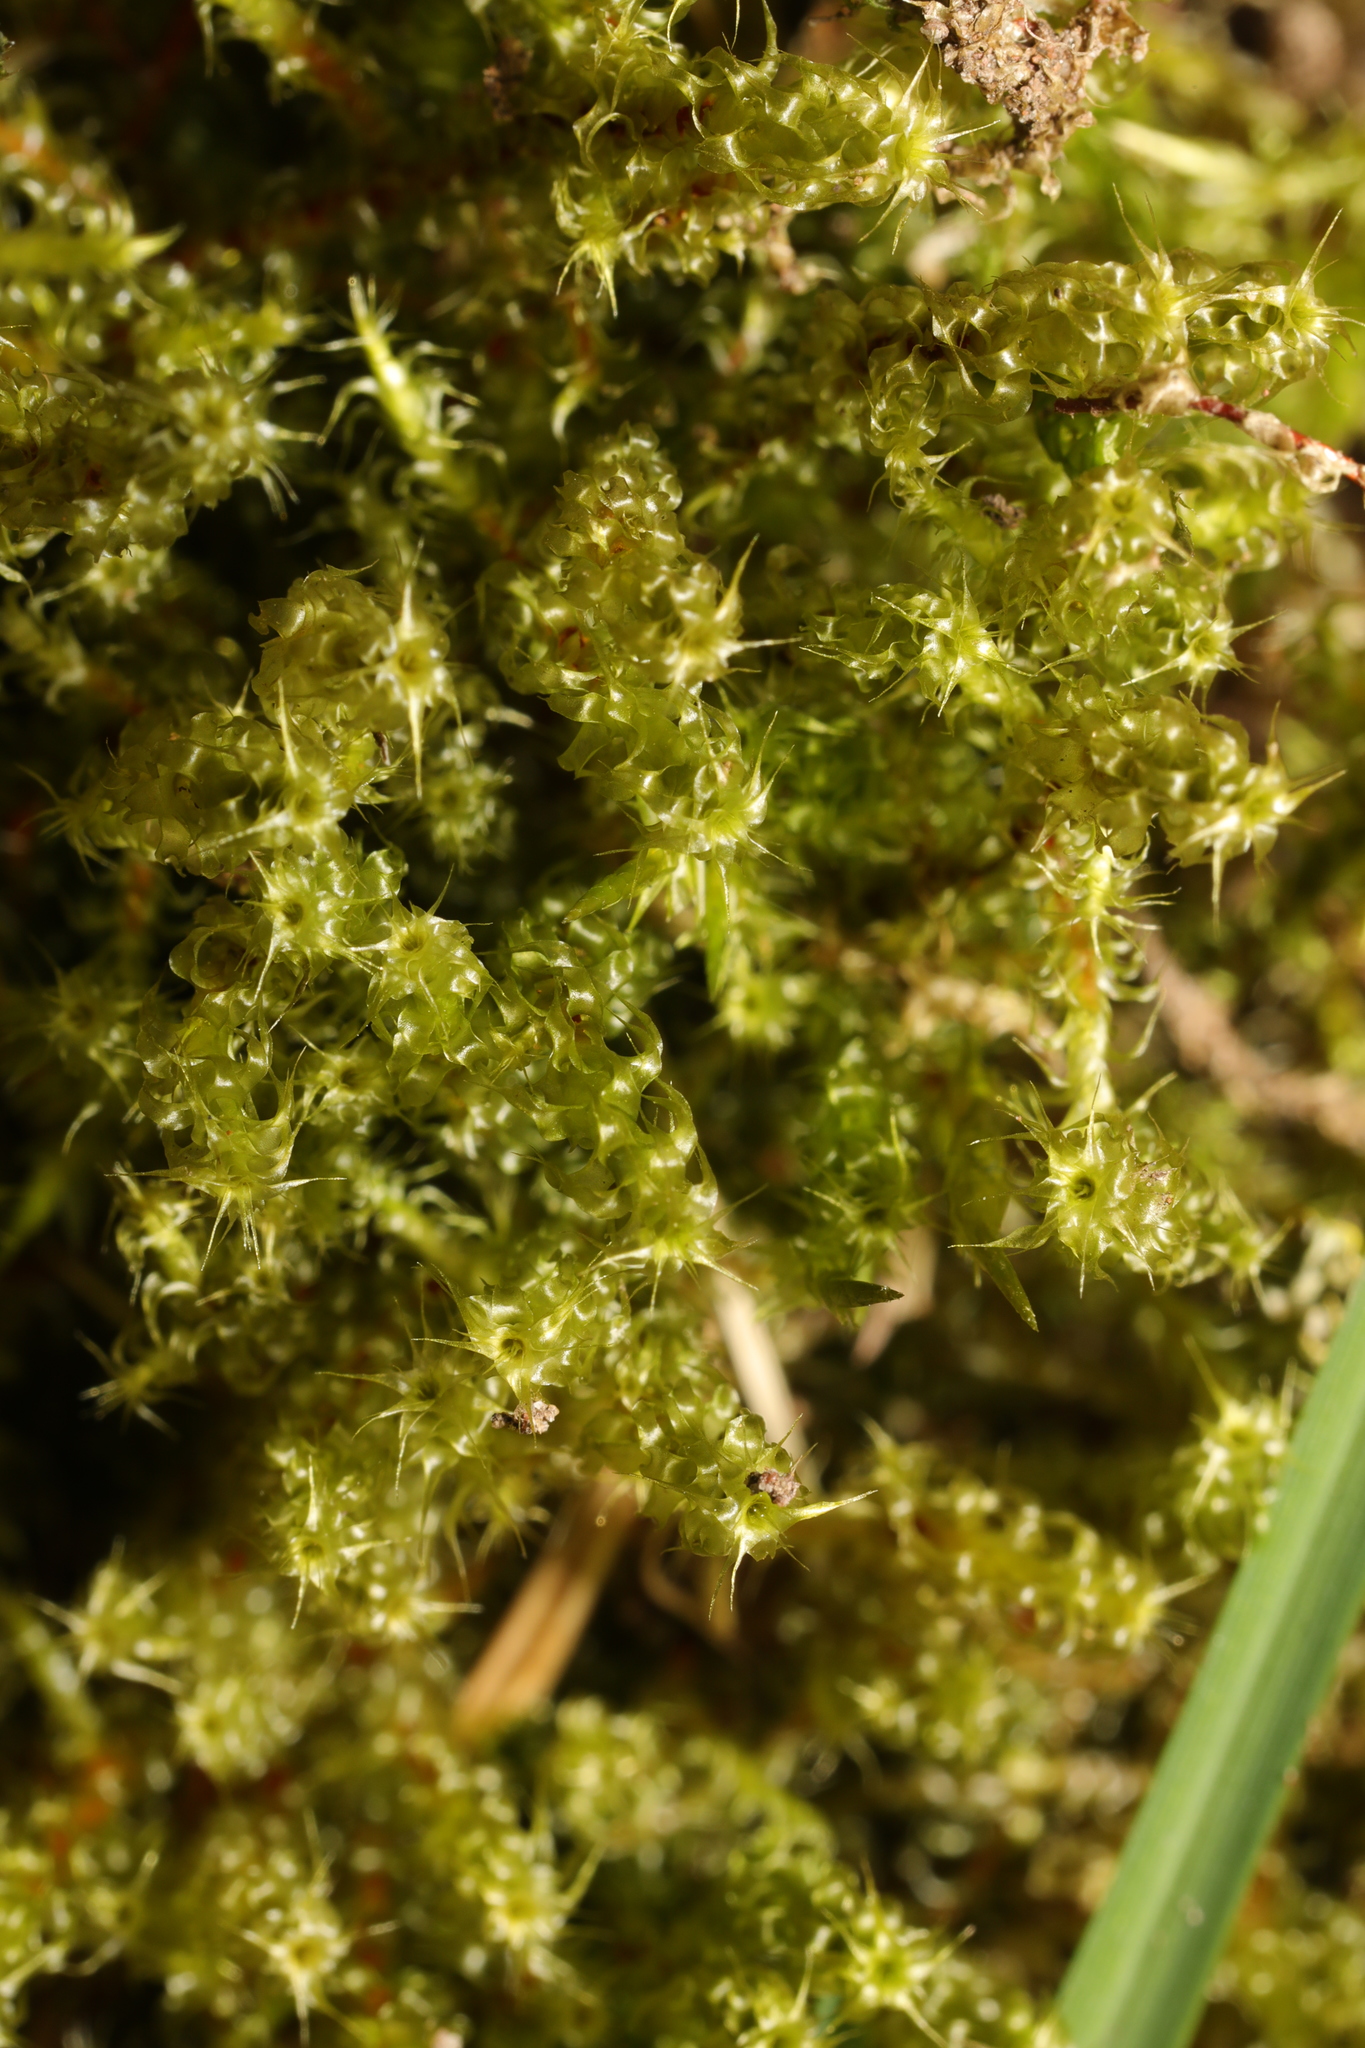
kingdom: Plantae
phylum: Bryophyta
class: Bryopsida
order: Hypnales
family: Hylocomiaceae
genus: Rhytidiadelphus
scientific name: Rhytidiadelphus squarrosus
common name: Springy turf-moss
